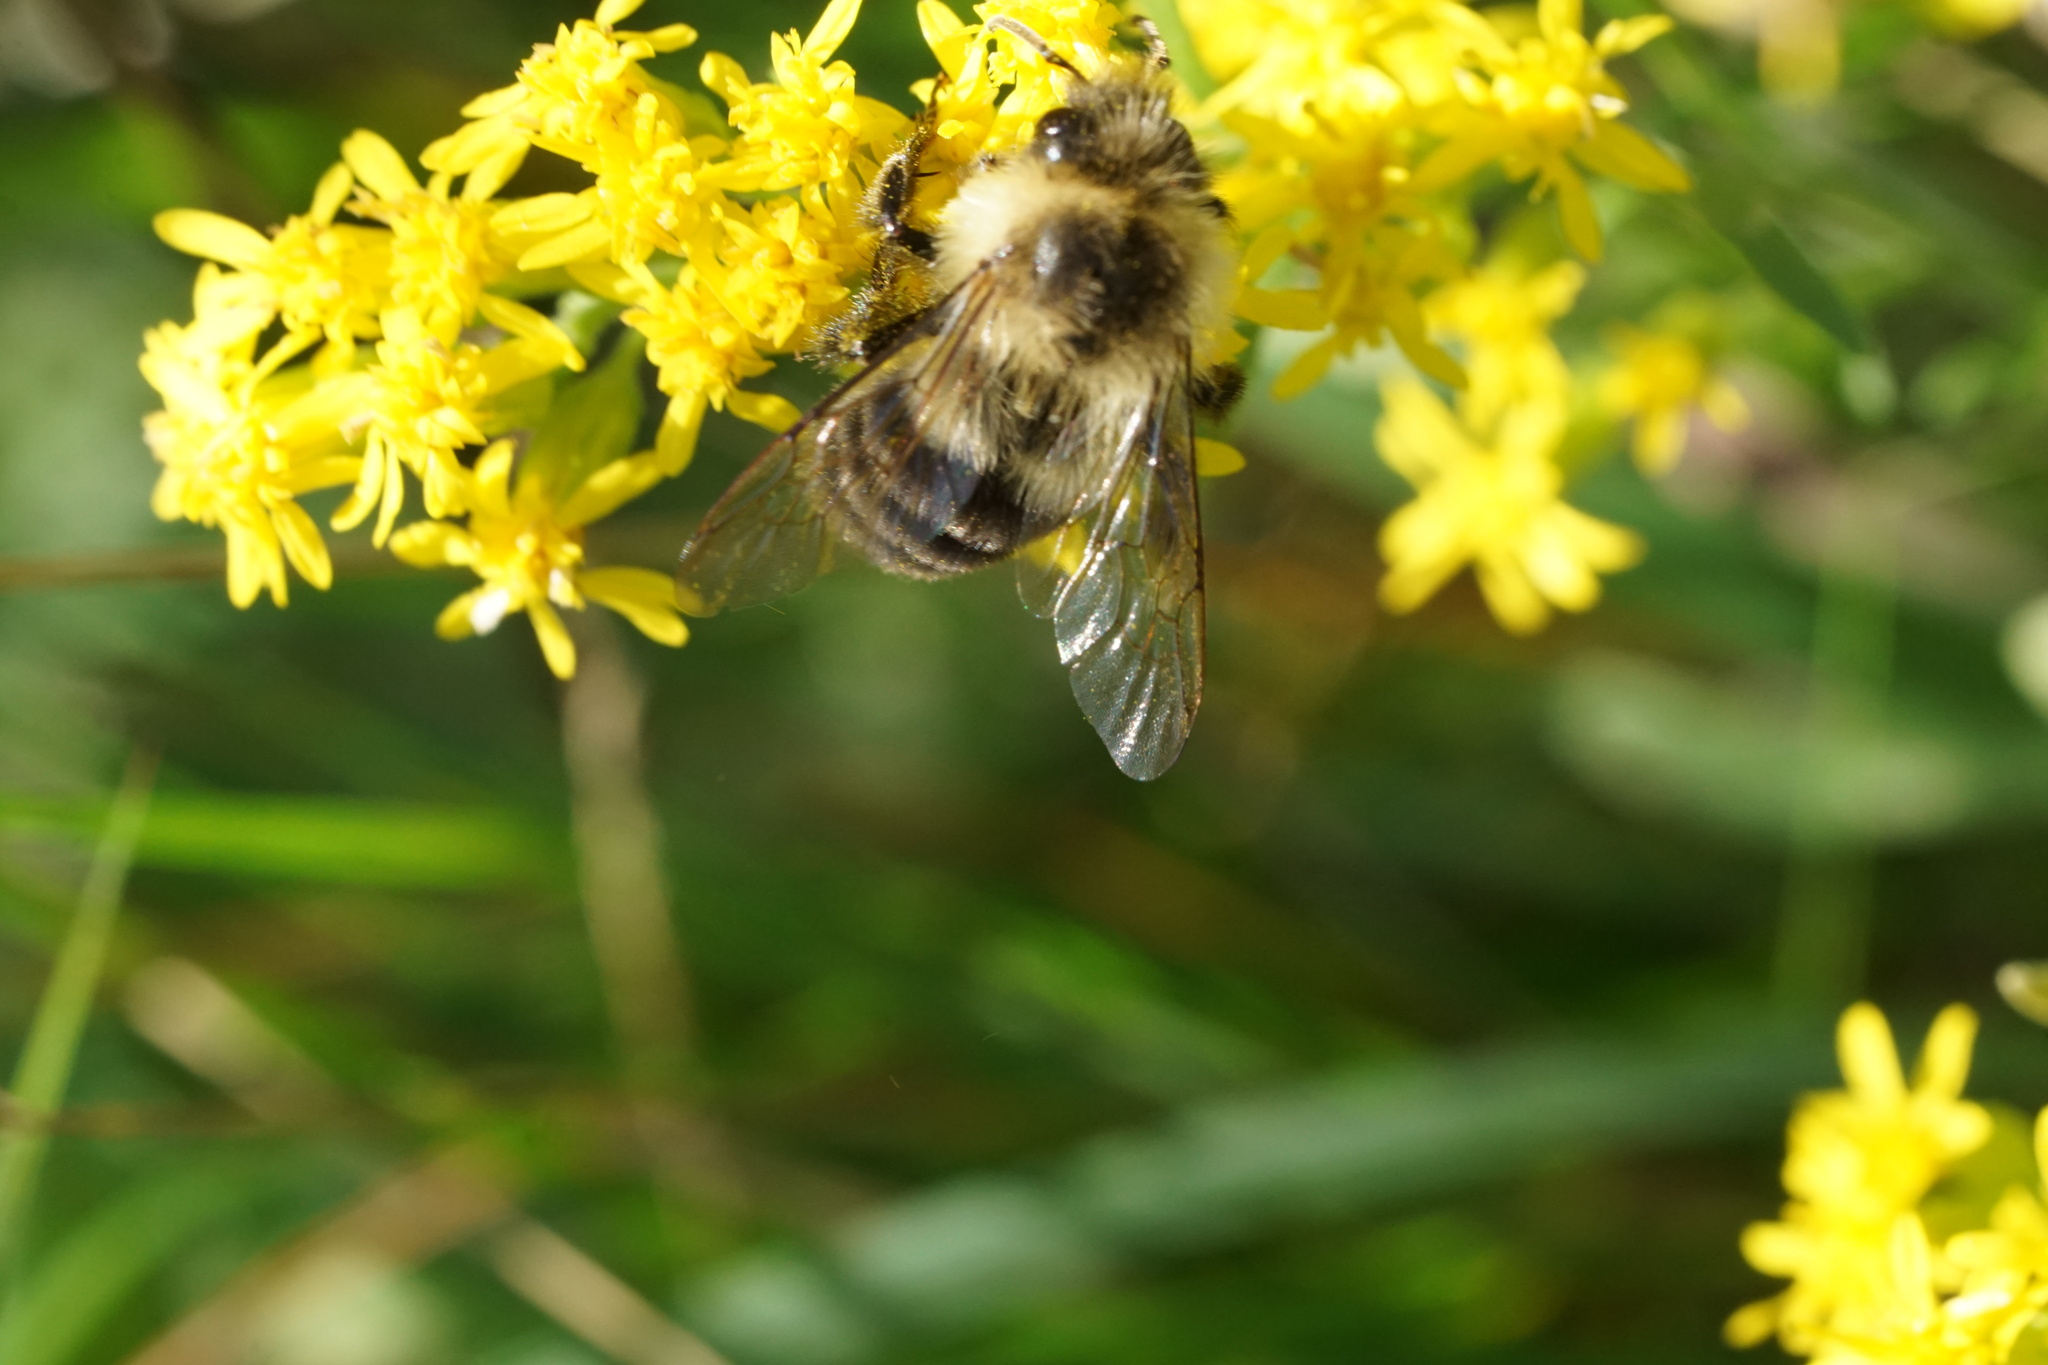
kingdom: Animalia
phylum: Arthropoda
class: Insecta
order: Hymenoptera
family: Apidae
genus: Bombus
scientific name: Bombus impatiens
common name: Common eastern bumble bee
